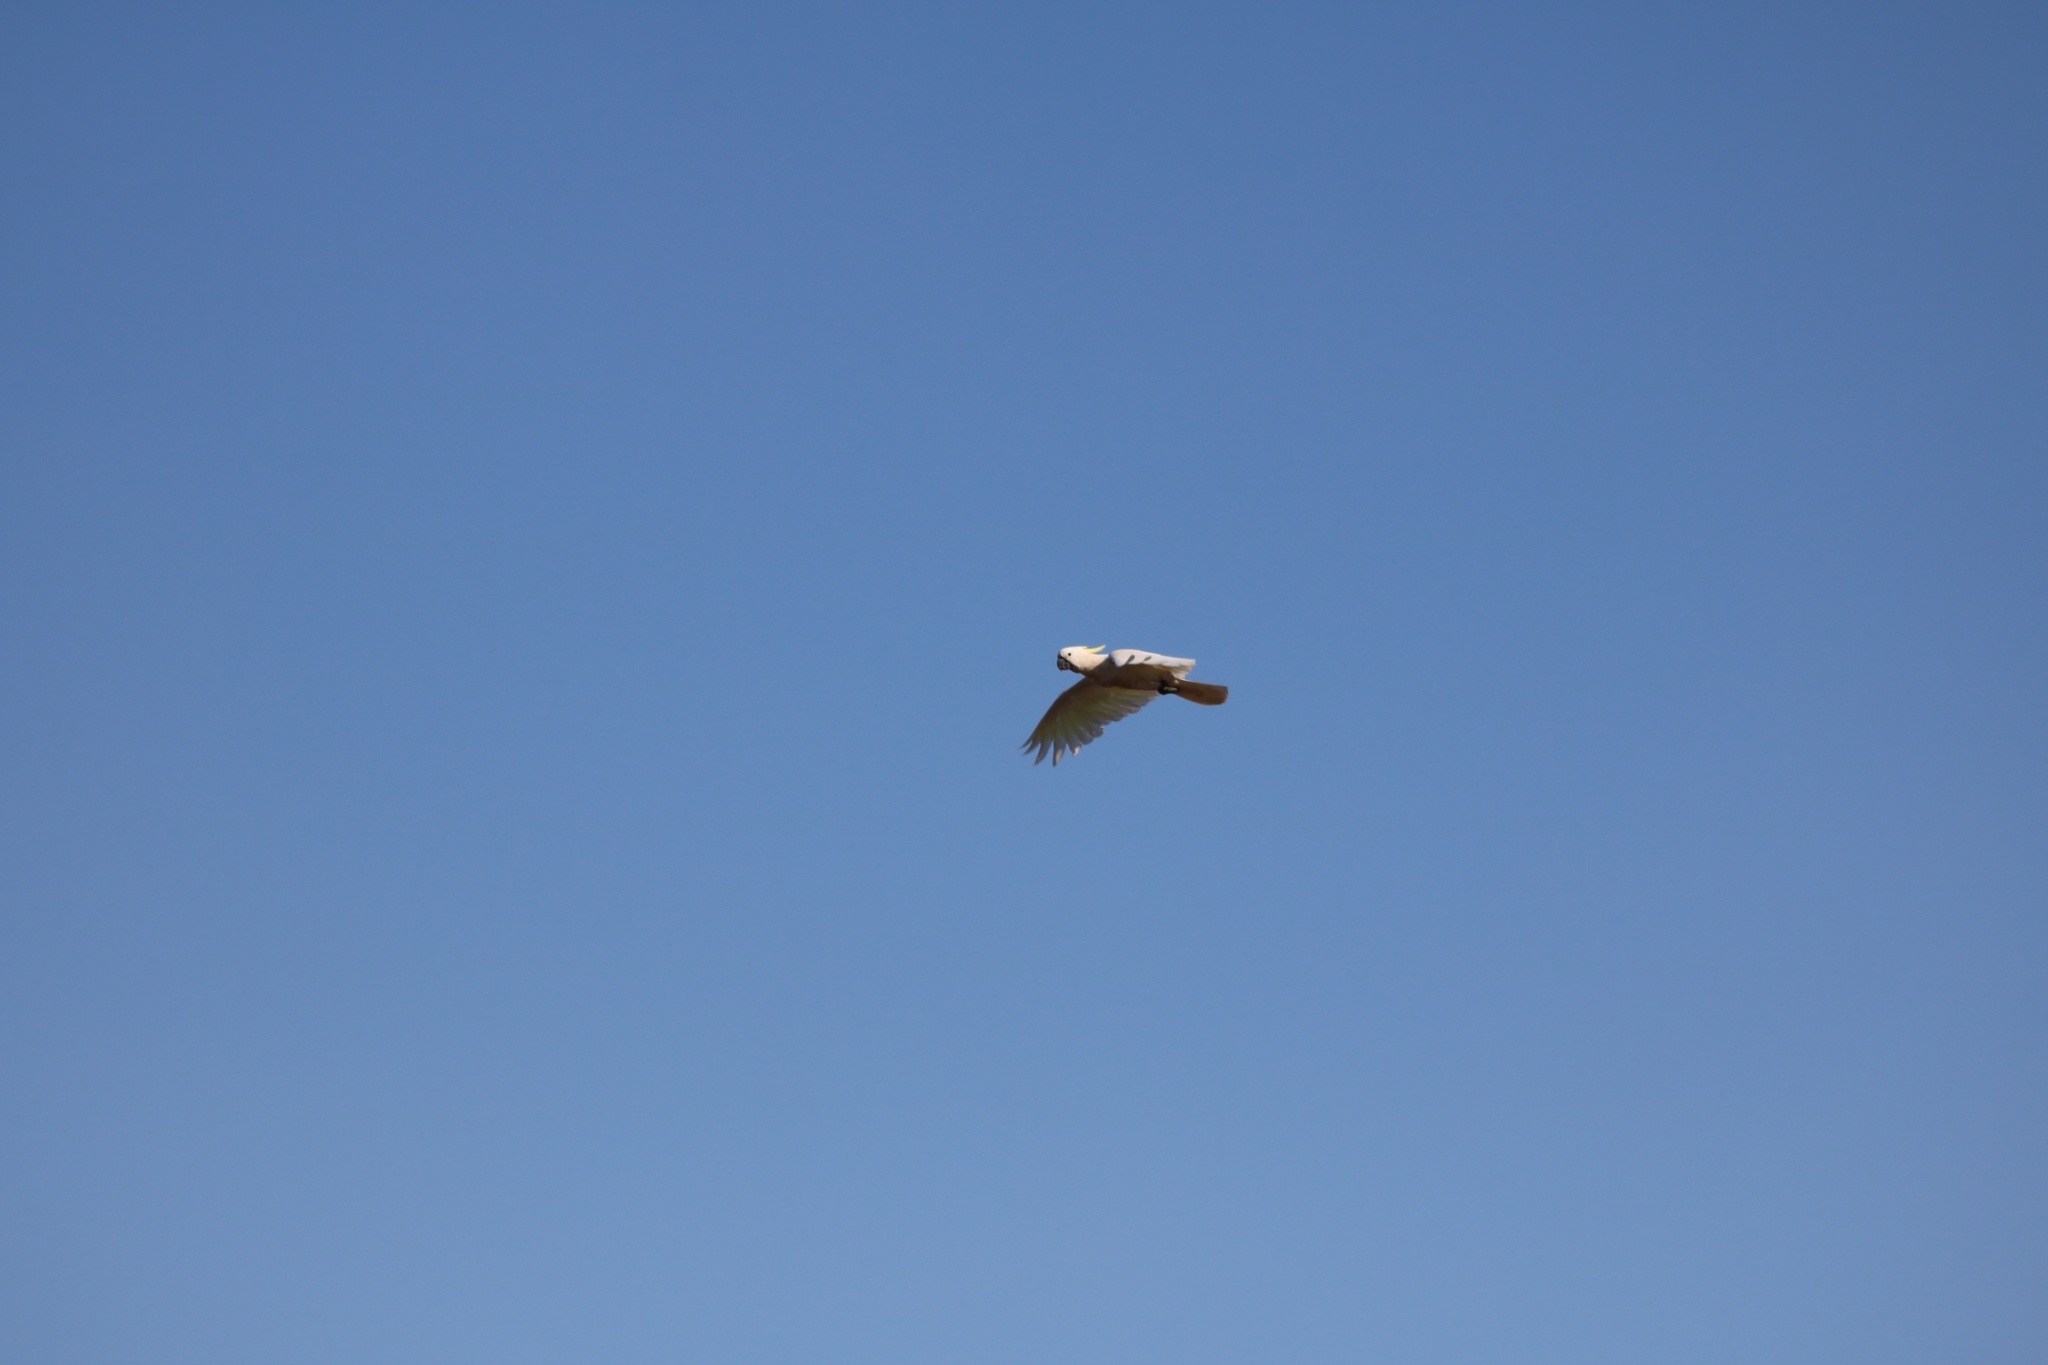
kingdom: Animalia
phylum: Chordata
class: Aves
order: Psittaciformes
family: Psittacidae
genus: Cacatua
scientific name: Cacatua galerita
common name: Sulphur-crested cockatoo
